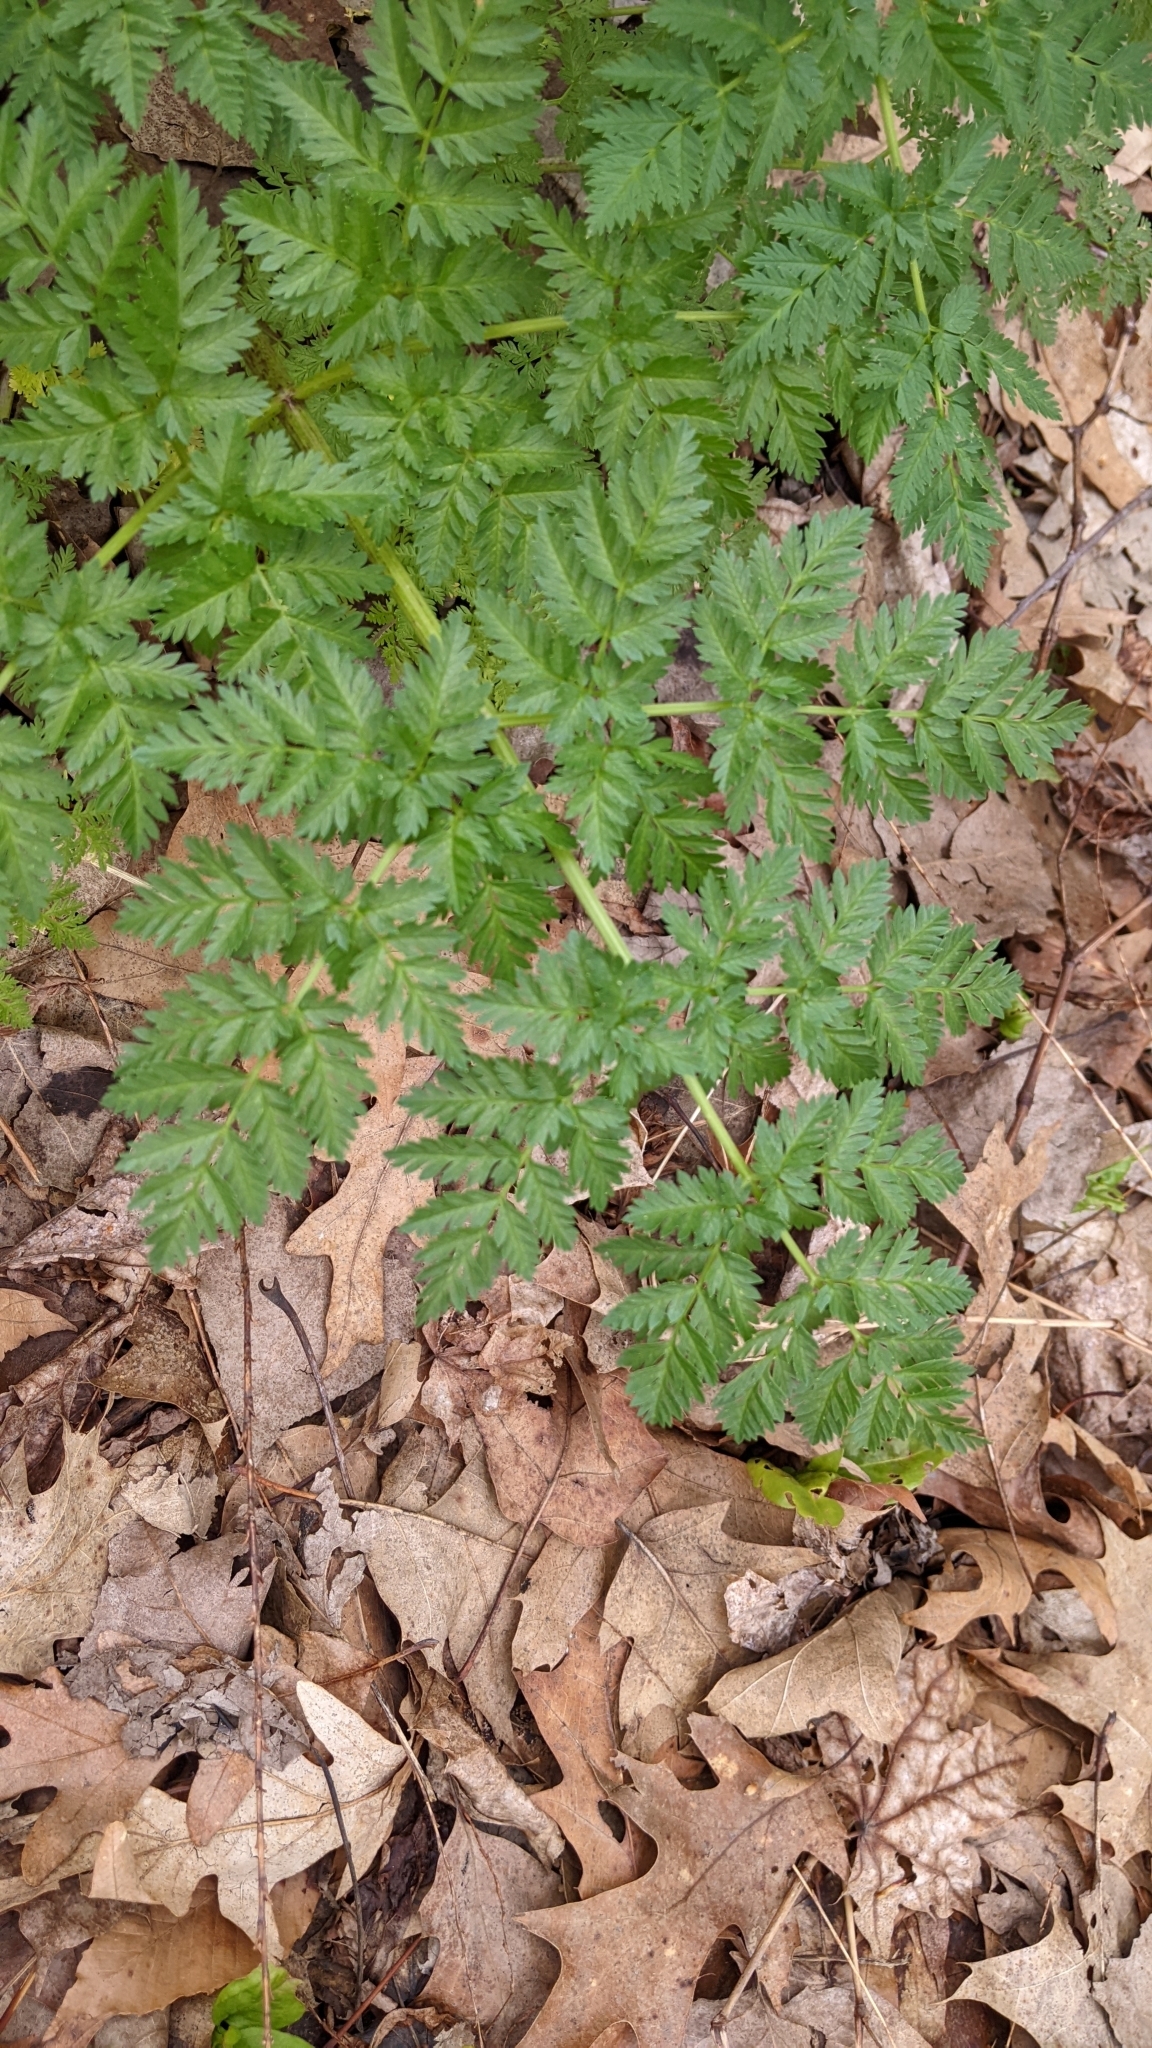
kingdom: Plantae
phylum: Tracheophyta
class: Magnoliopsida
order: Apiales
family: Apiaceae
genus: Conium
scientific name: Conium maculatum
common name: Hemlock
